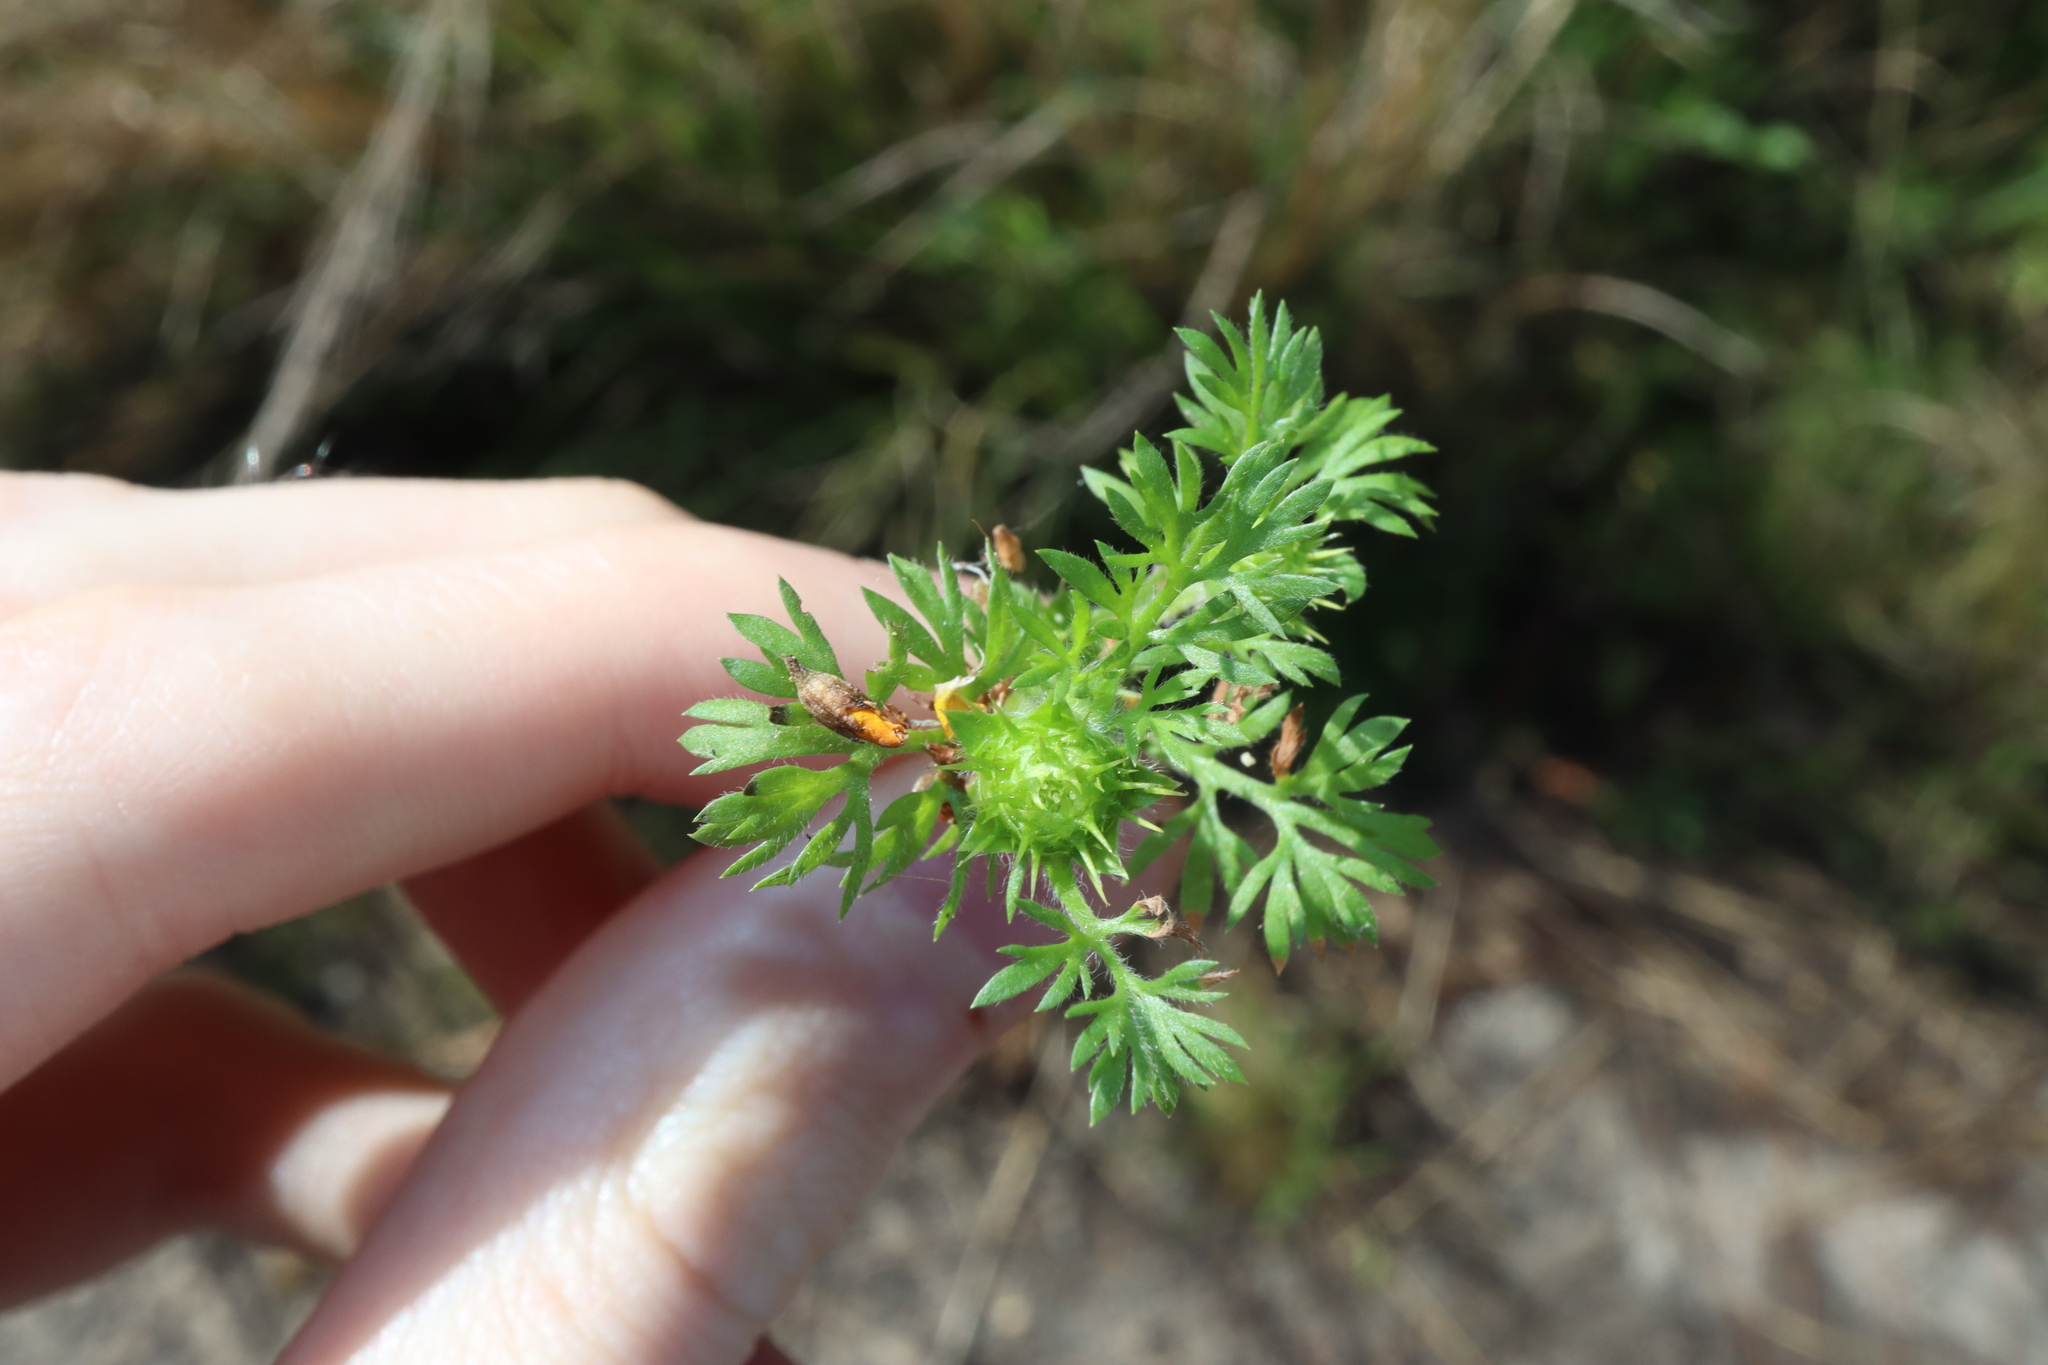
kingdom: Plantae
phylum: Tracheophyta
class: Magnoliopsida
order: Asterales
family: Asteraceae
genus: Soliva
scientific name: Soliva sessilis
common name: Field burrweed
